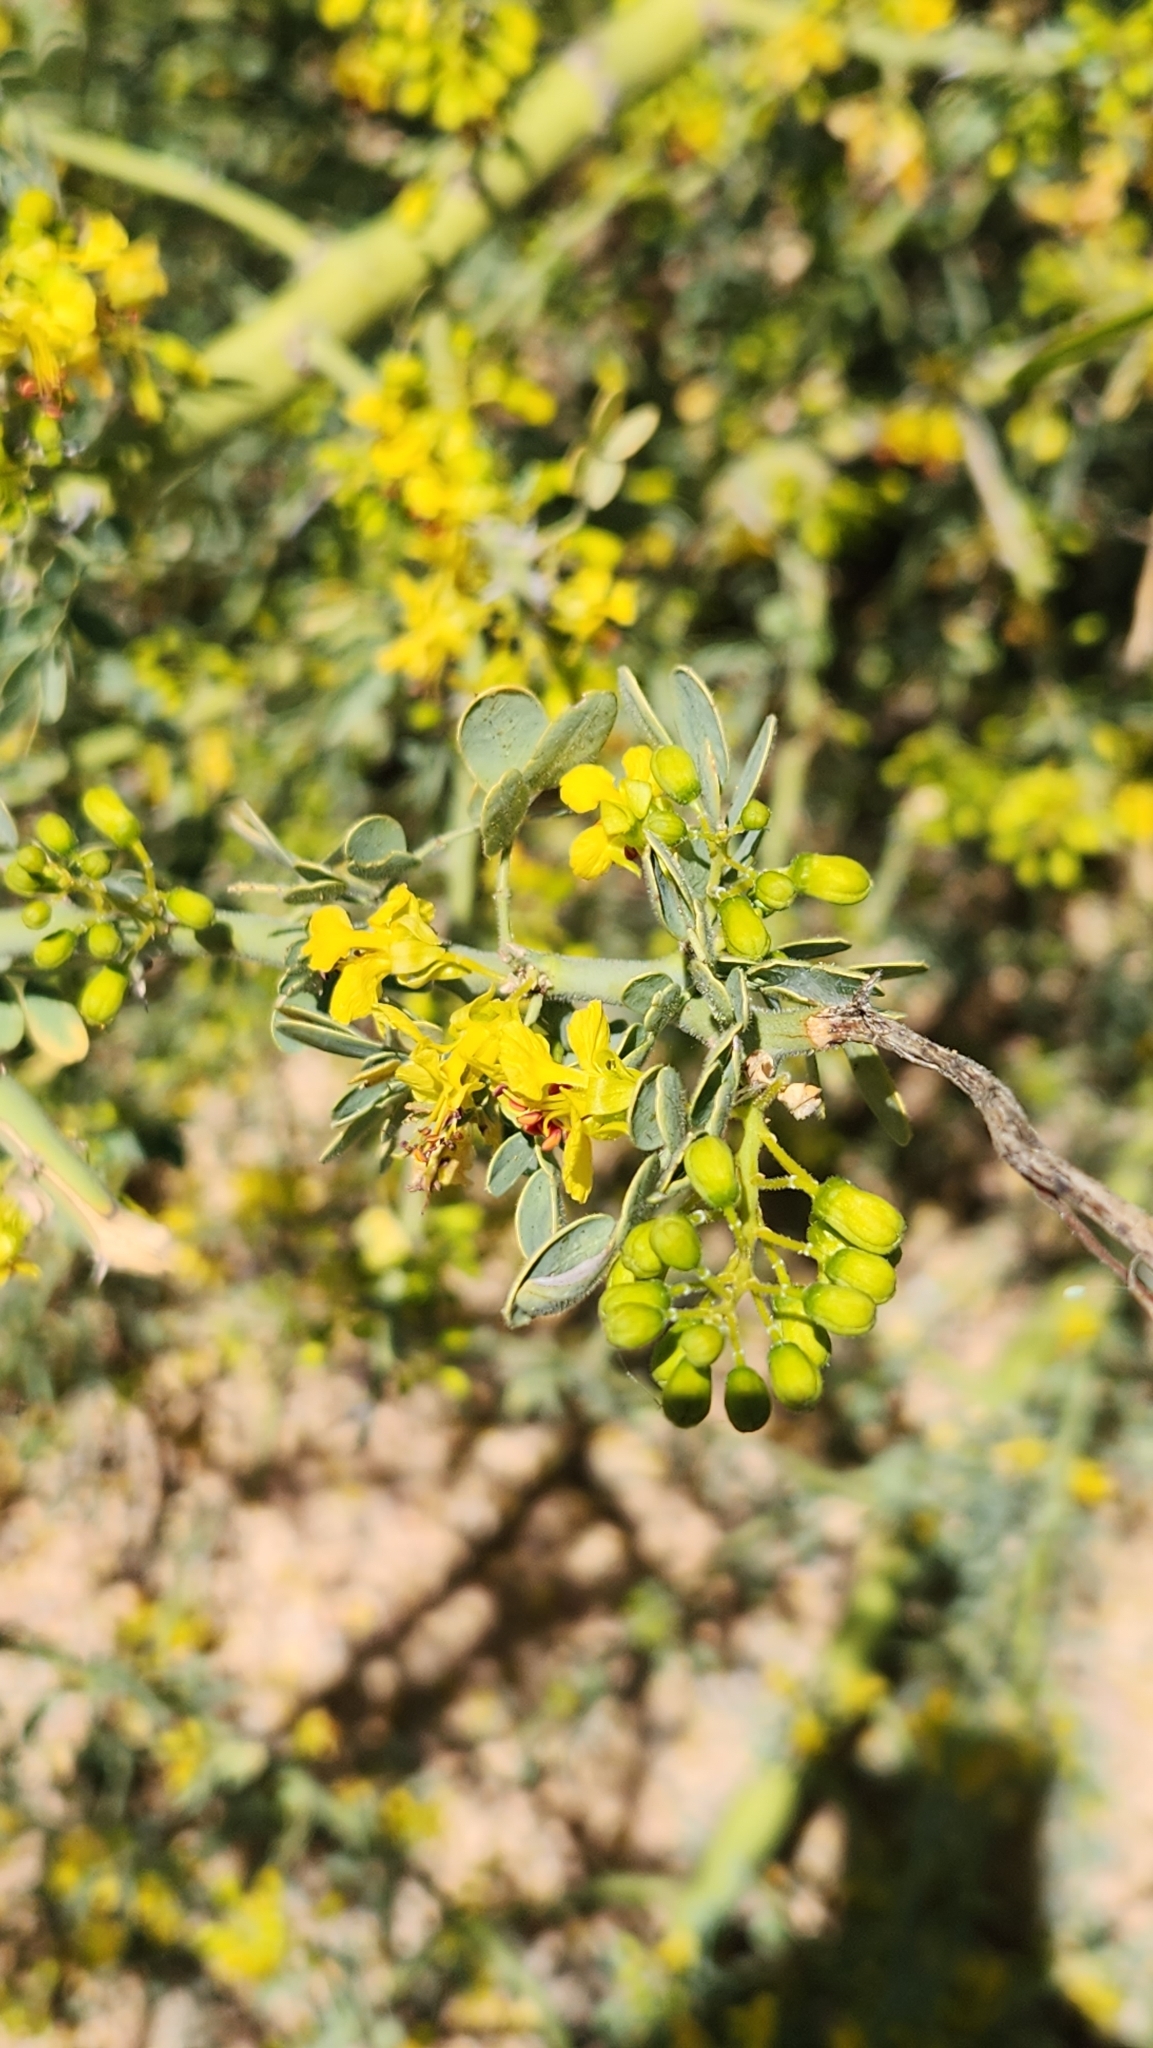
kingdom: Plantae
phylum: Tracheophyta
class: Magnoliopsida
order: Fabales
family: Fabaceae
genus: Parkinsonia
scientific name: Parkinsonia florida
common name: Blue paloverde
